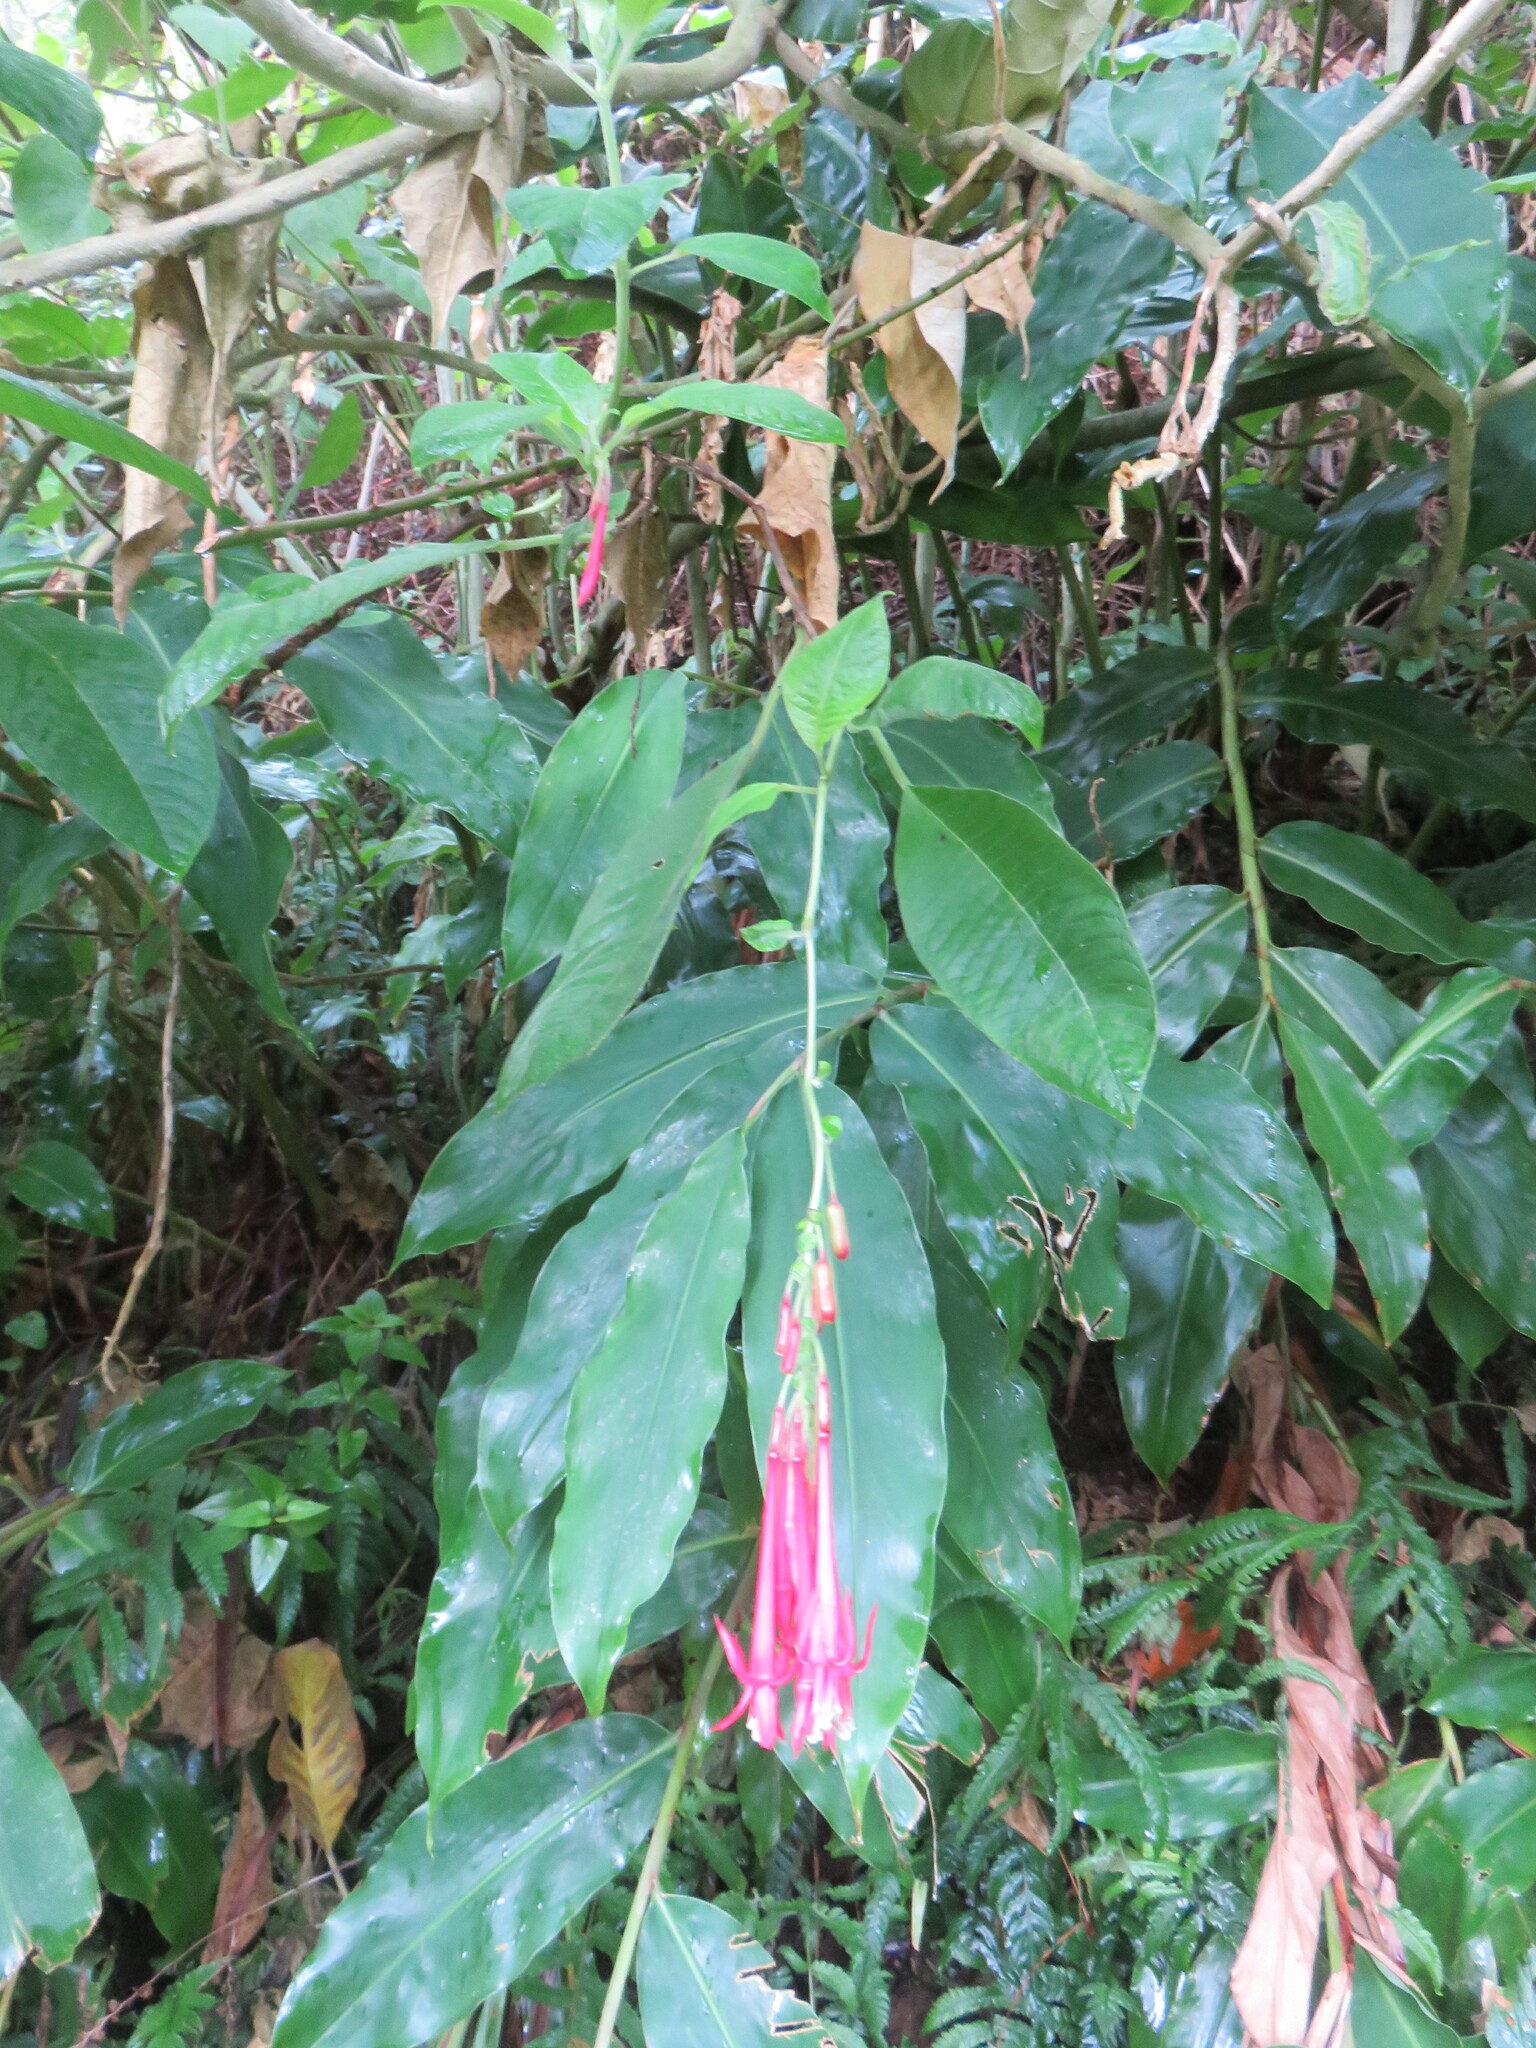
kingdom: Plantae
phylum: Tracheophyta
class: Magnoliopsida
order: Myrtales
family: Onagraceae
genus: Fuchsia
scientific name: Fuchsia boliviana
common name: Bolivian fuchsia
